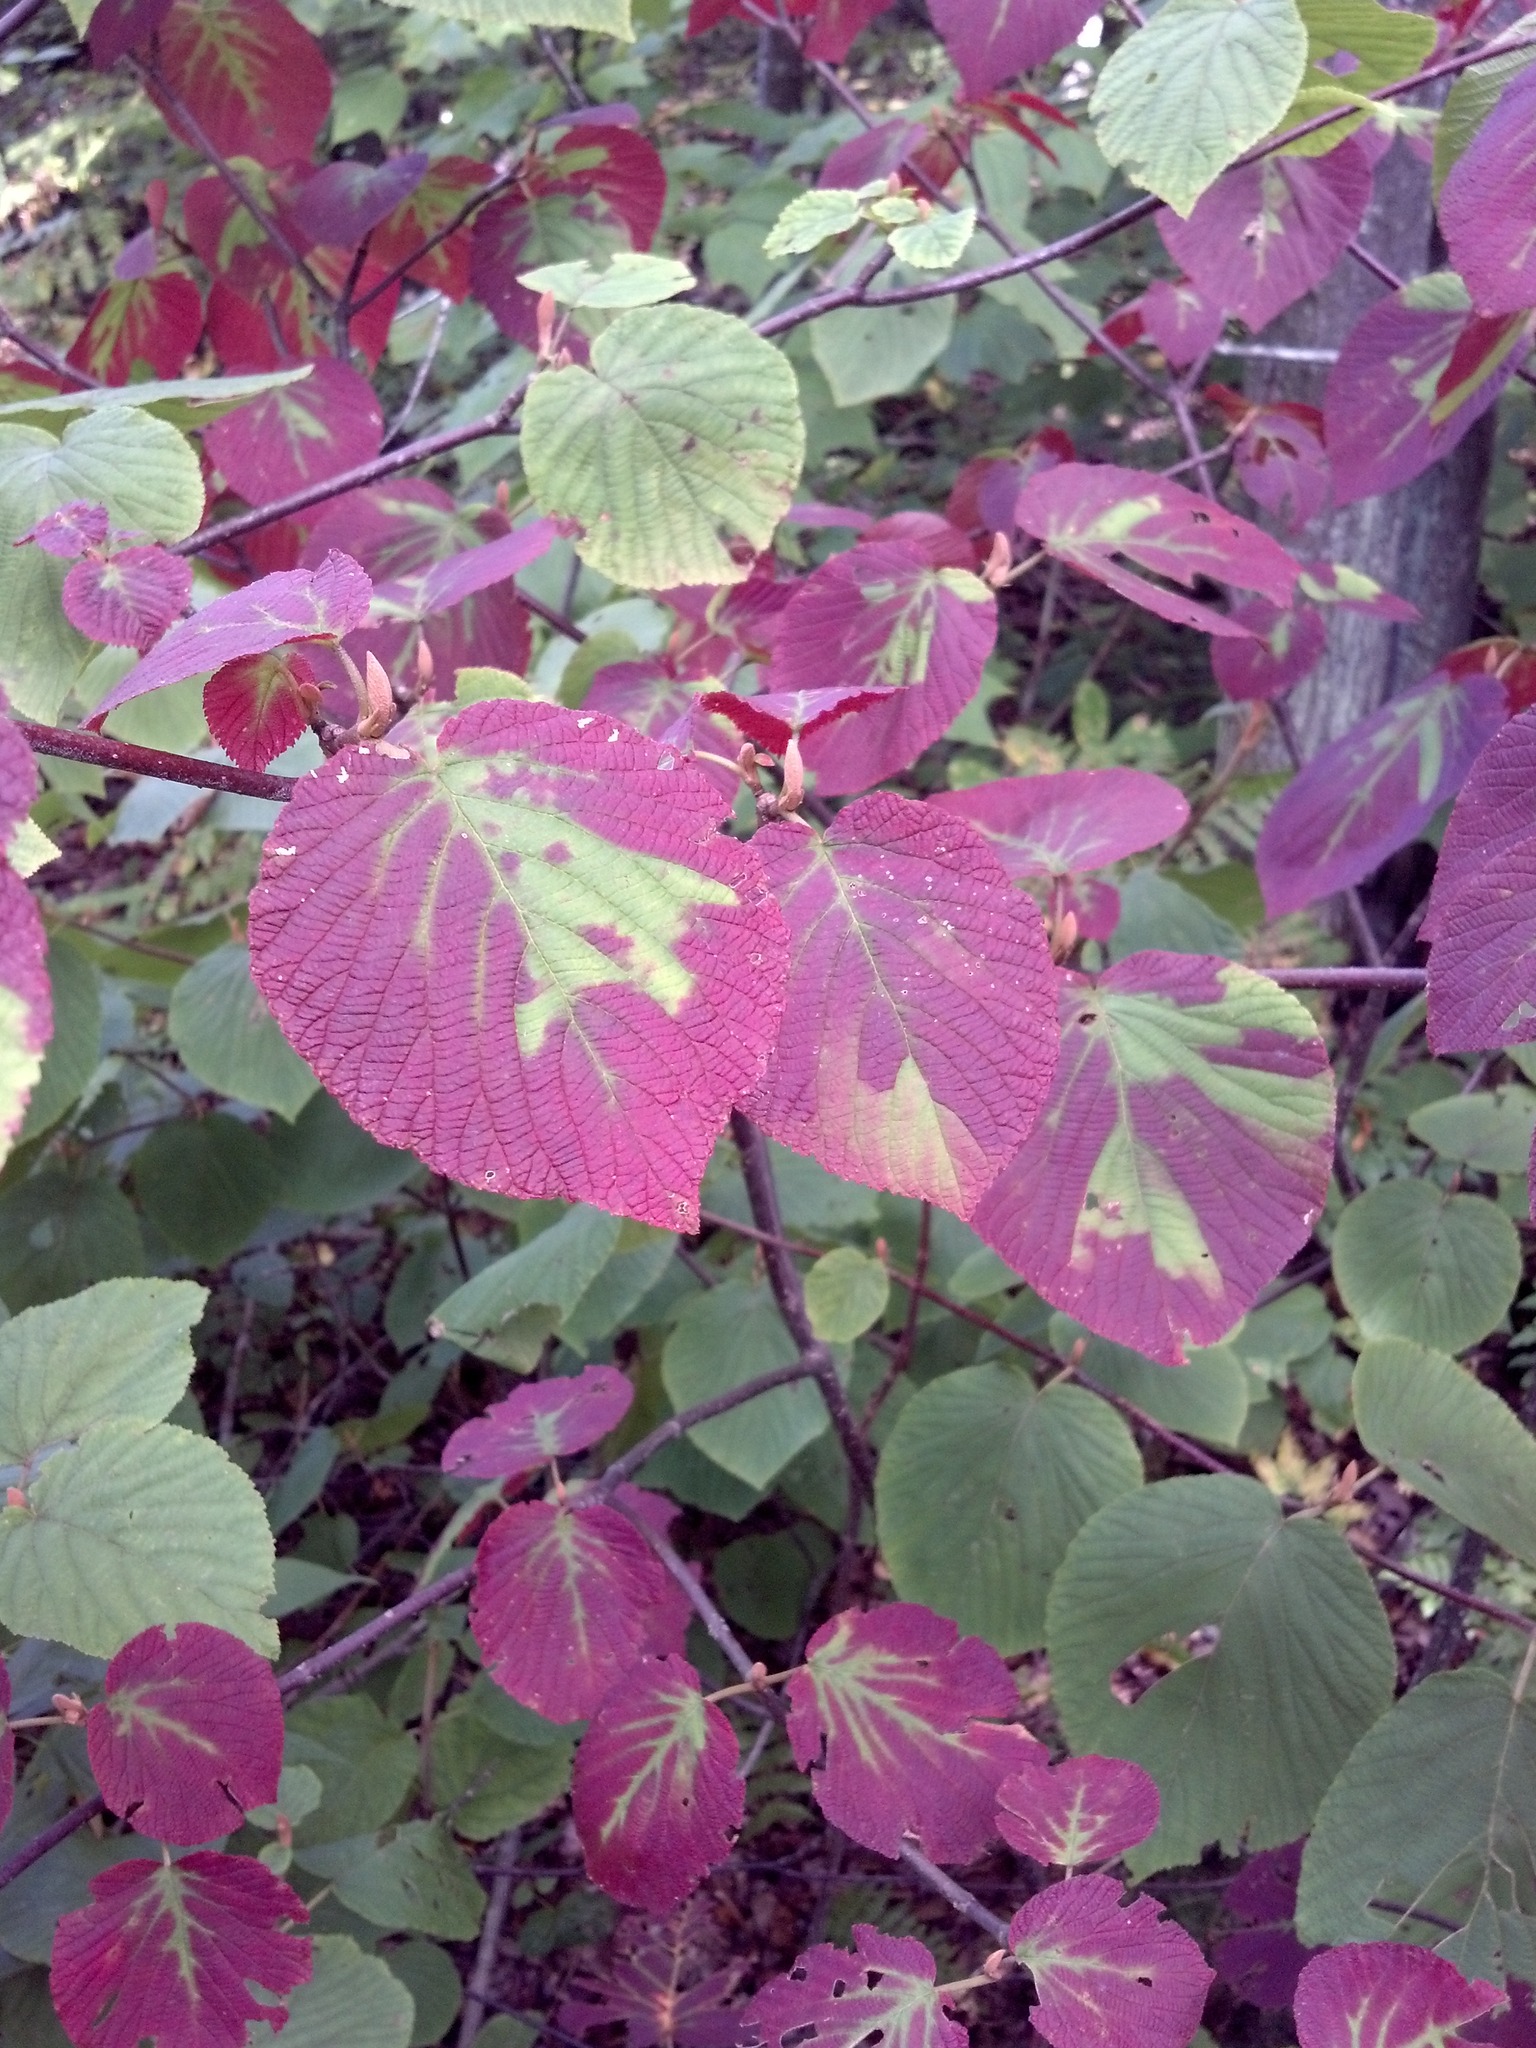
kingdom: Plantae
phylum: Tracheophyta
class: Magnoliopsida
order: Dipsacales
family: Viburnaceae
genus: Viburnum
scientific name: Viburnum lantanoides
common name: Hobblebush
